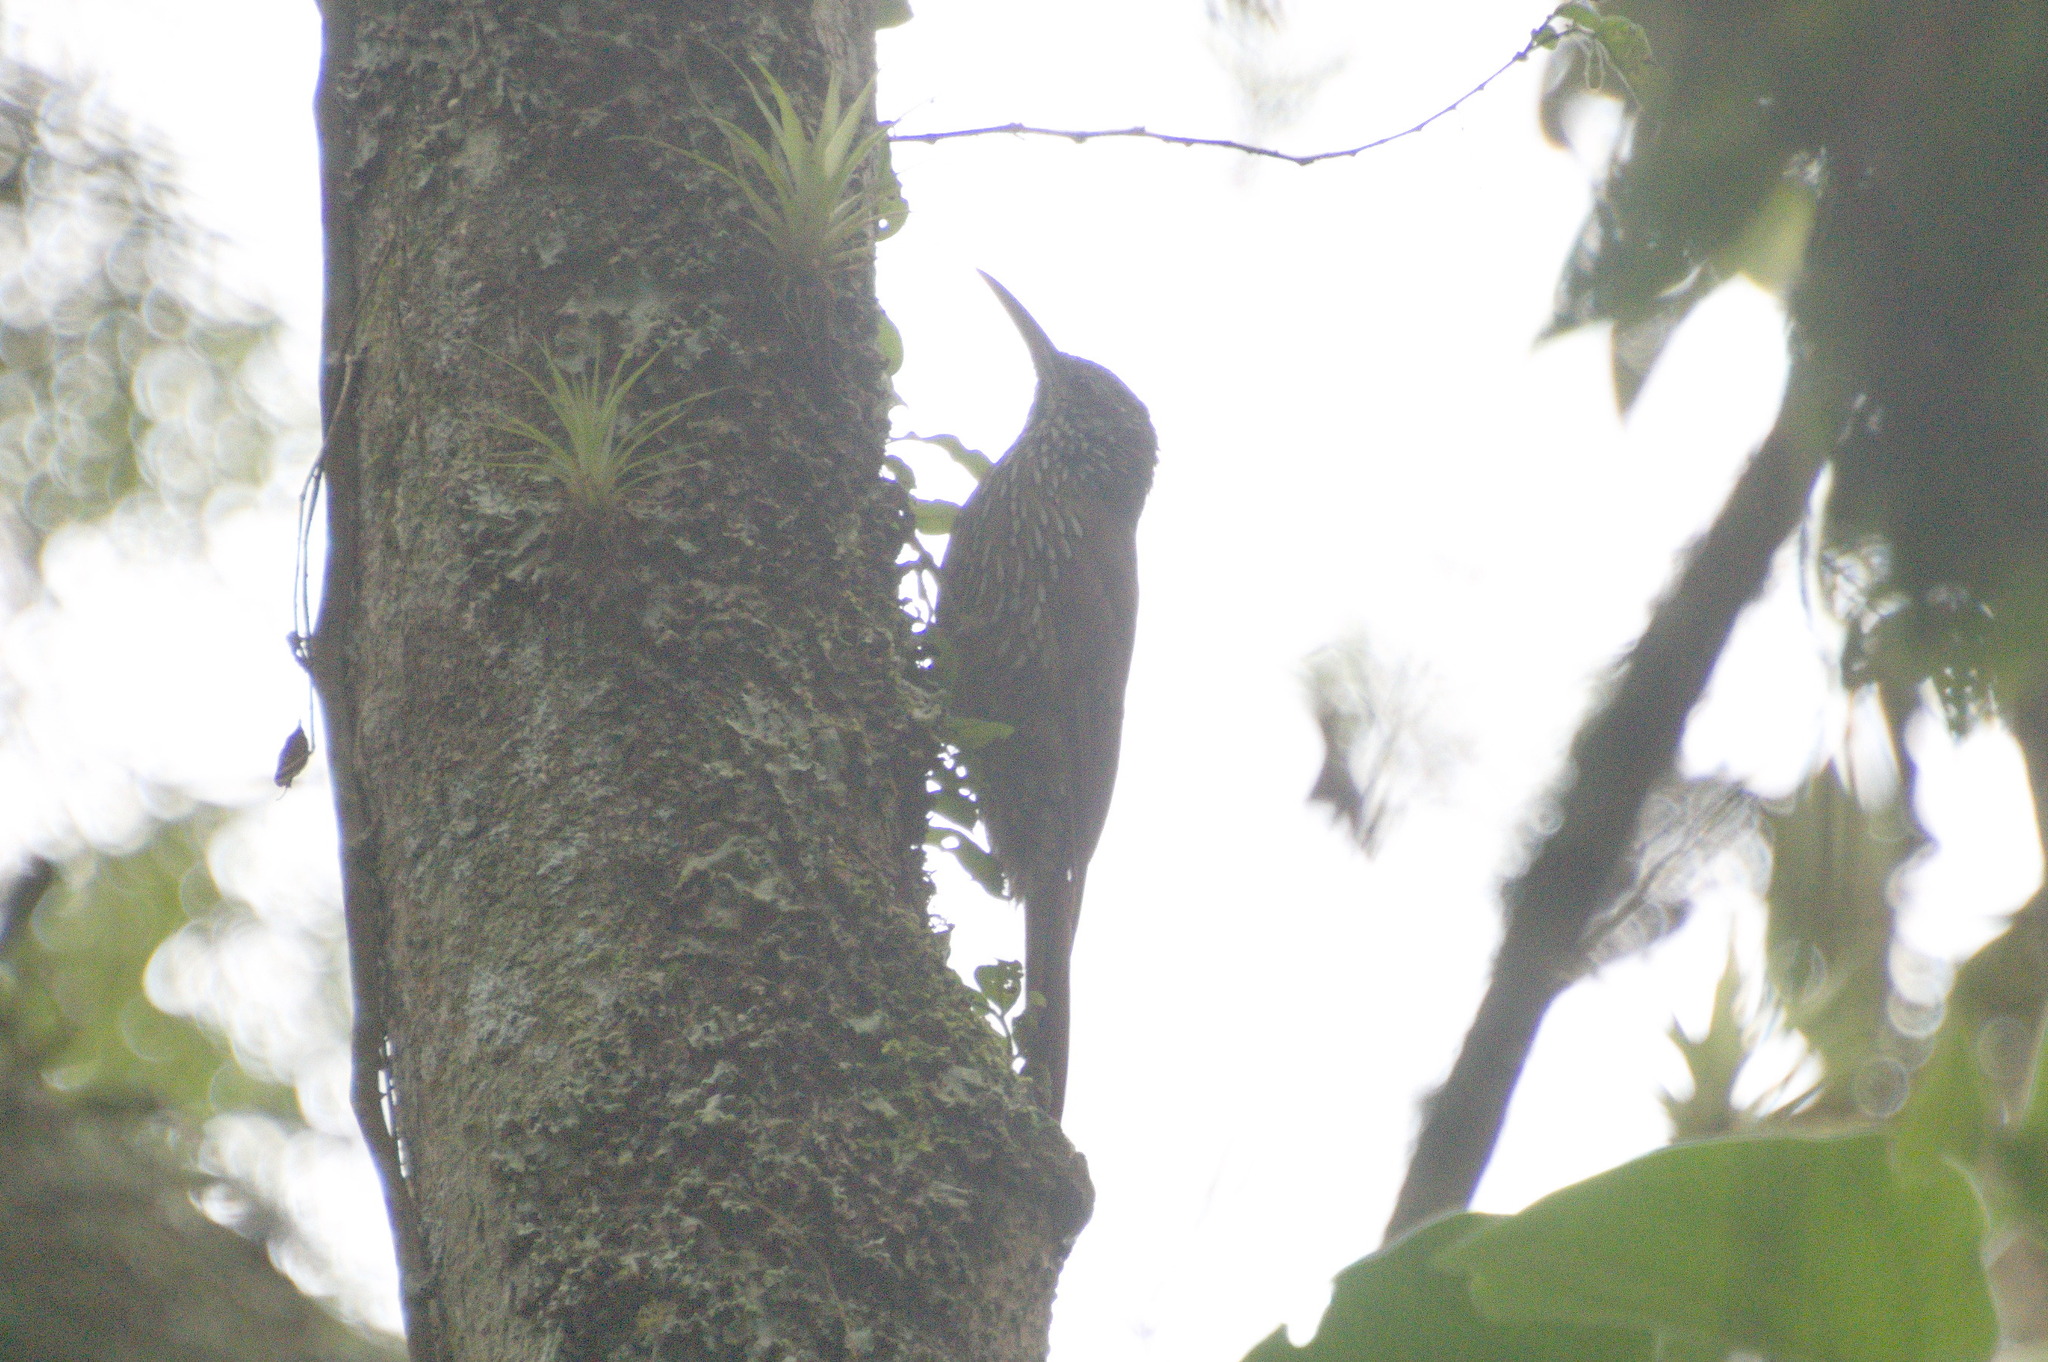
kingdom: Animalia
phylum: Chordata
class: Aves
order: Passeriformes
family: Furnariidae
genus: Lepidocolaptes
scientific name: Lepidocolaptes lacrymiger
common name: Montane woodcreeper
